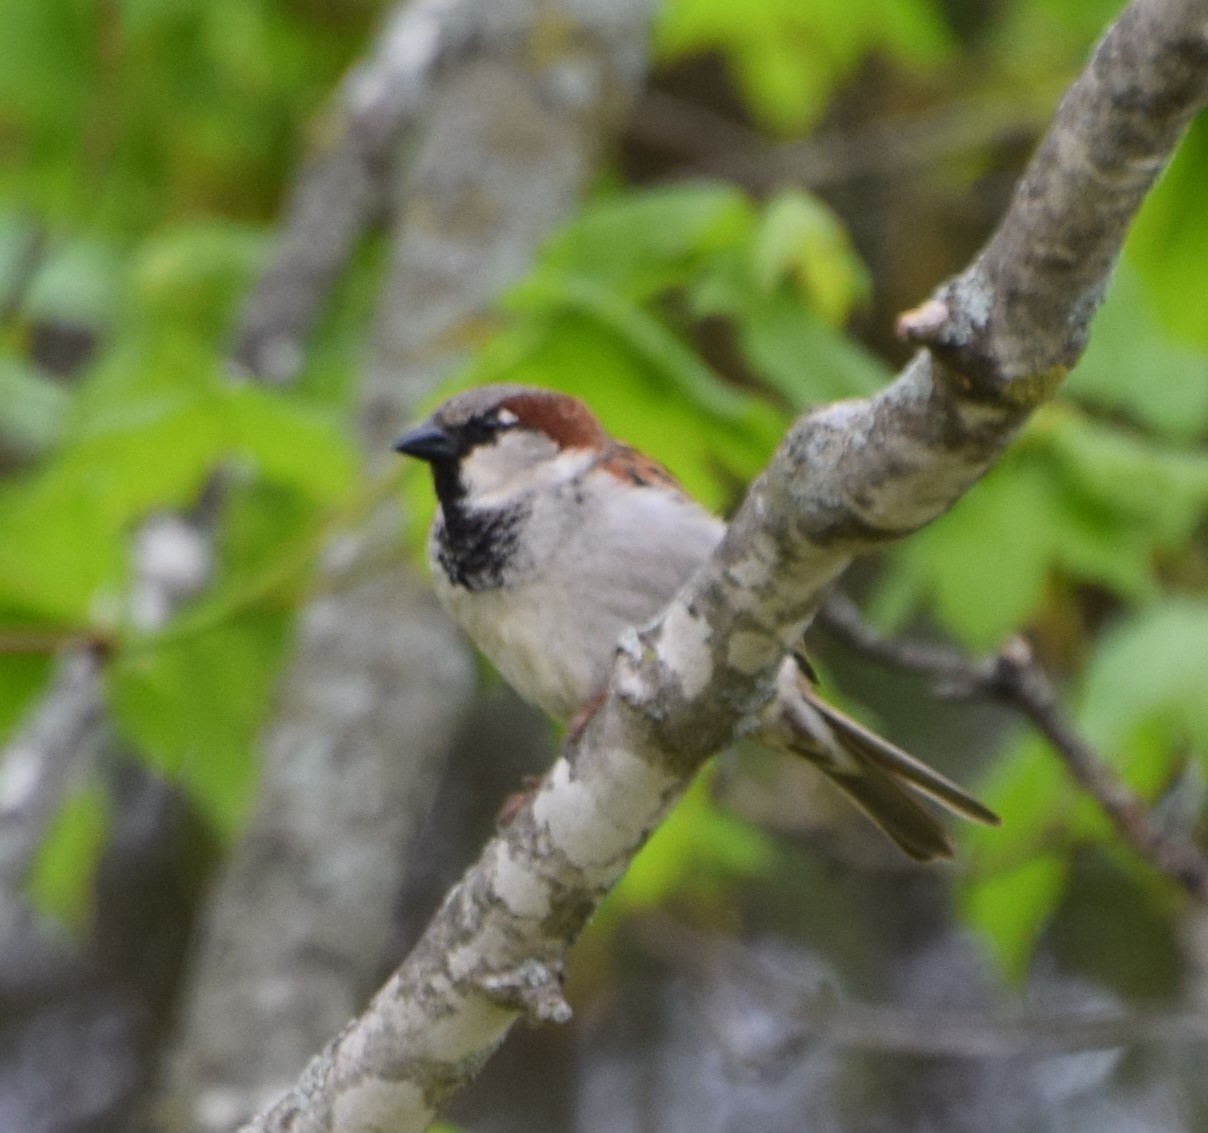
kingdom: Animalia
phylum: Chordata
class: Aves
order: Passeriformes
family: Passeridae
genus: Passer
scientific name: Passer domesticus
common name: House sparrow
